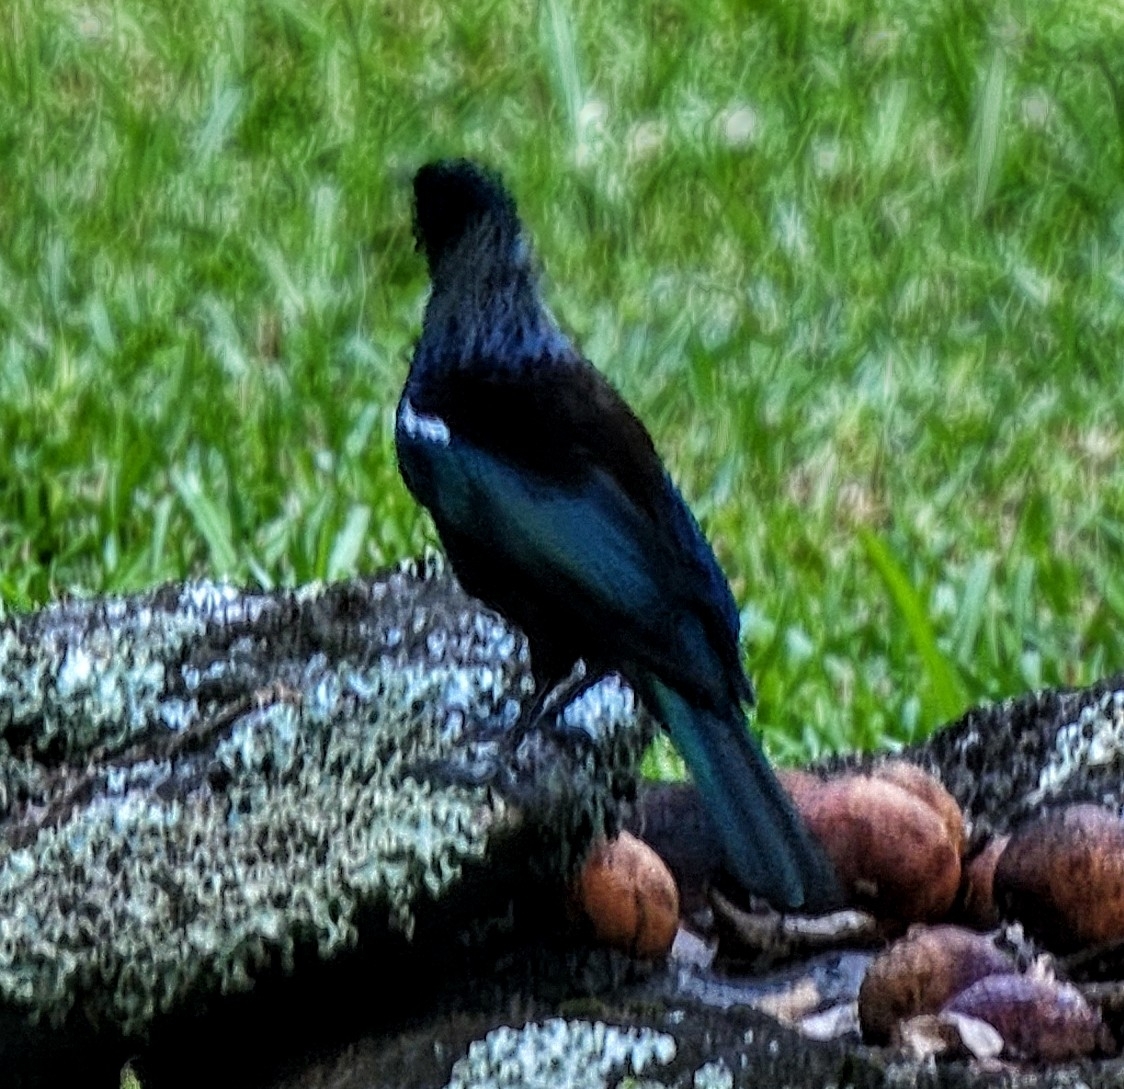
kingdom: Animalia
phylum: Chordata
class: Aves
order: Passeriformes
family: Meliphagidae
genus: Prosthemadera
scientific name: Prosthemadera novaeseelandiae
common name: Tui
